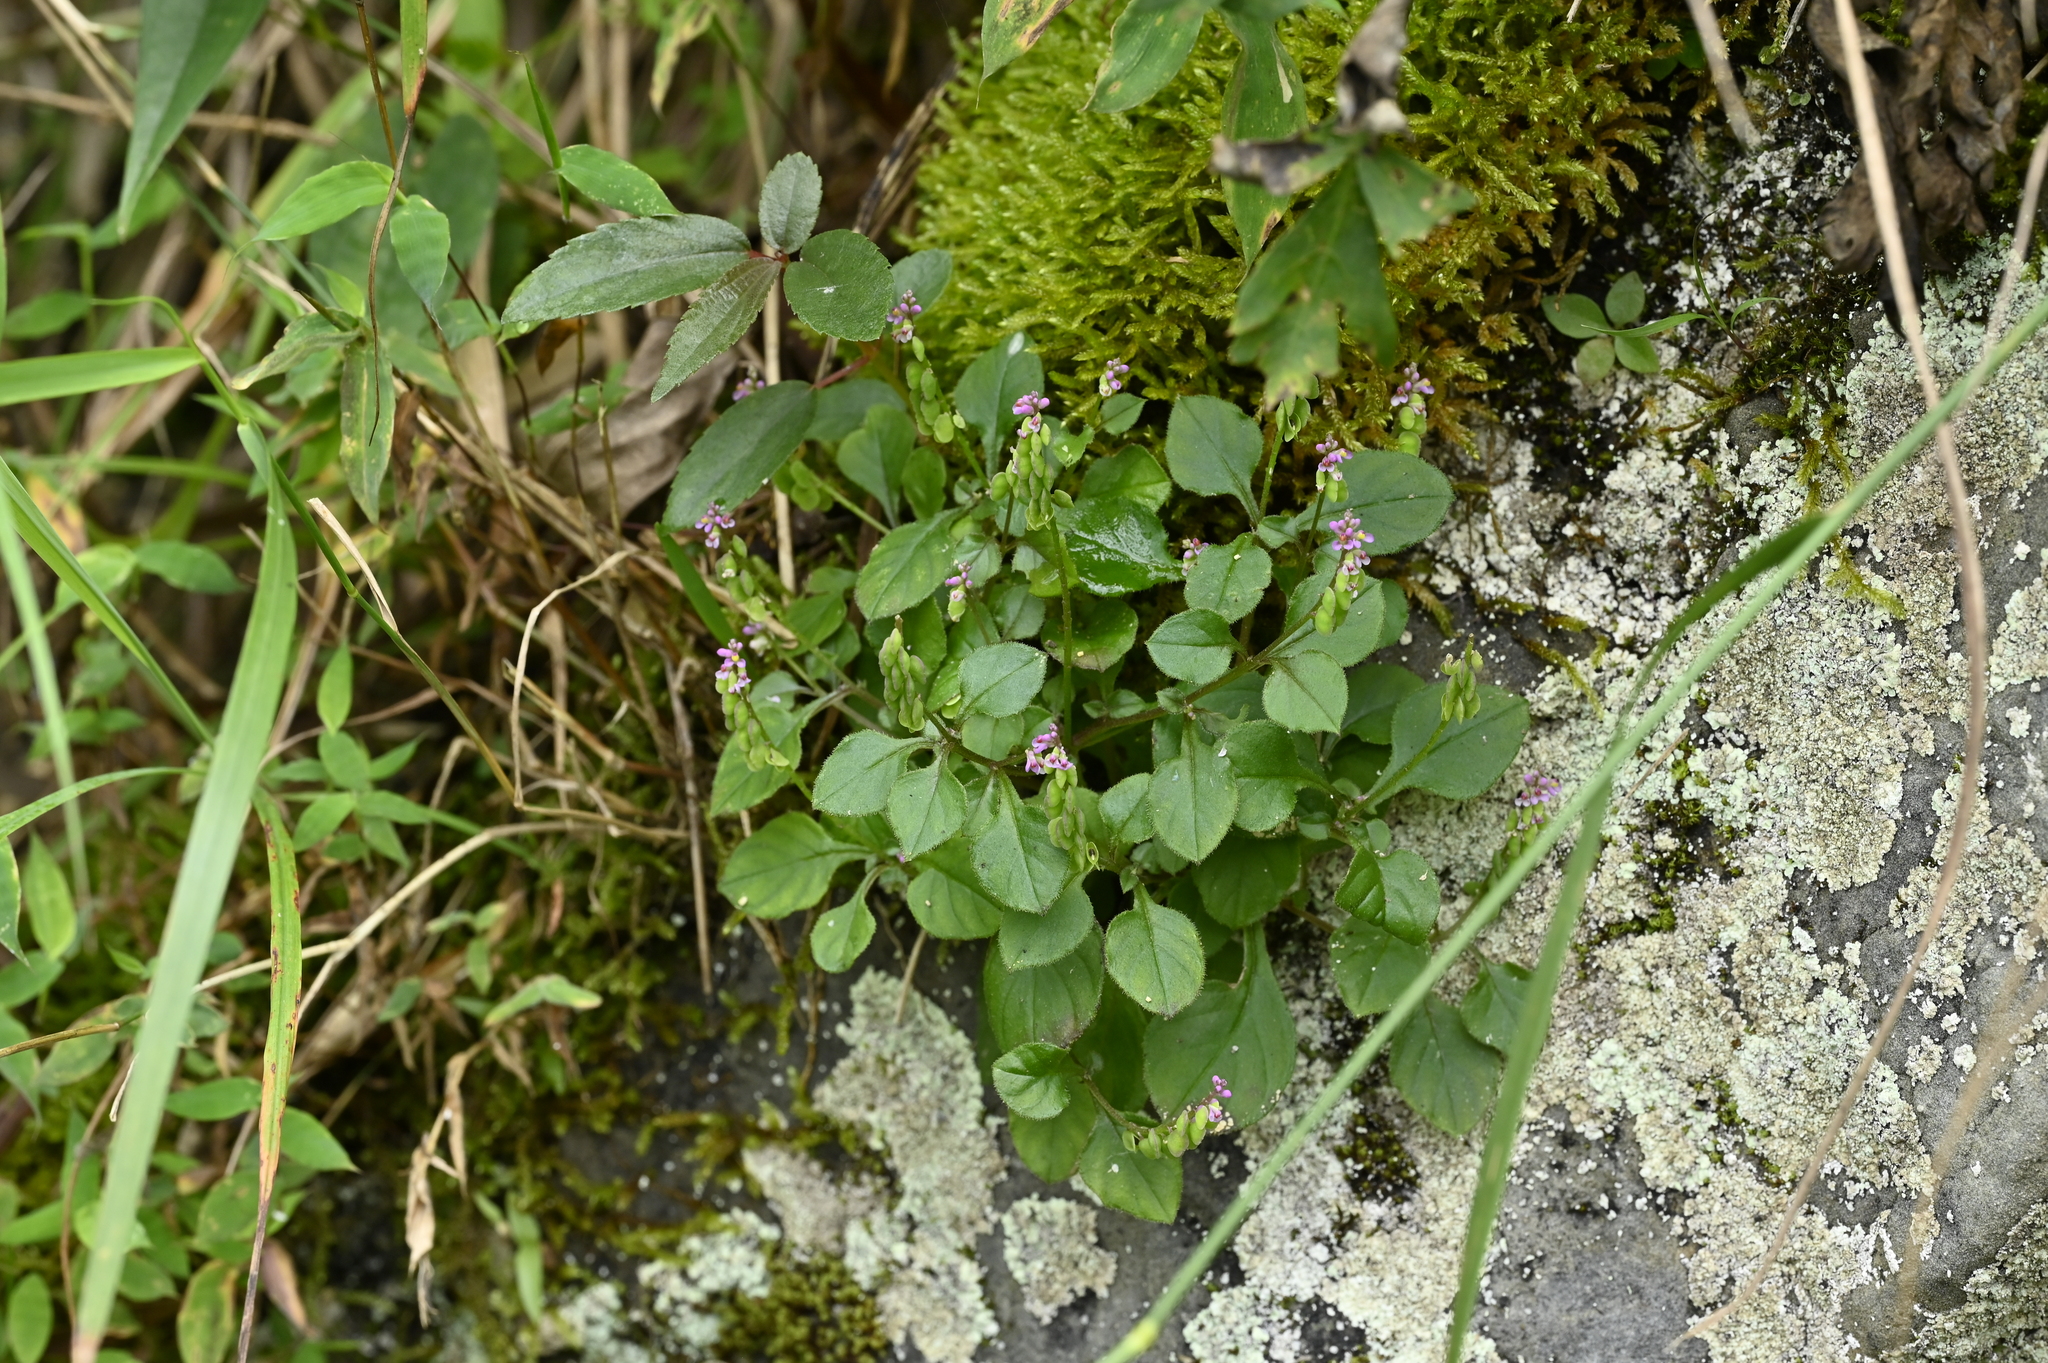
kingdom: Plantae
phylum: Tracheophyta
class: Magnoliopsida
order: Fabales
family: Polygalaceae
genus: Polygala
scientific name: Polygala tatarinowii
